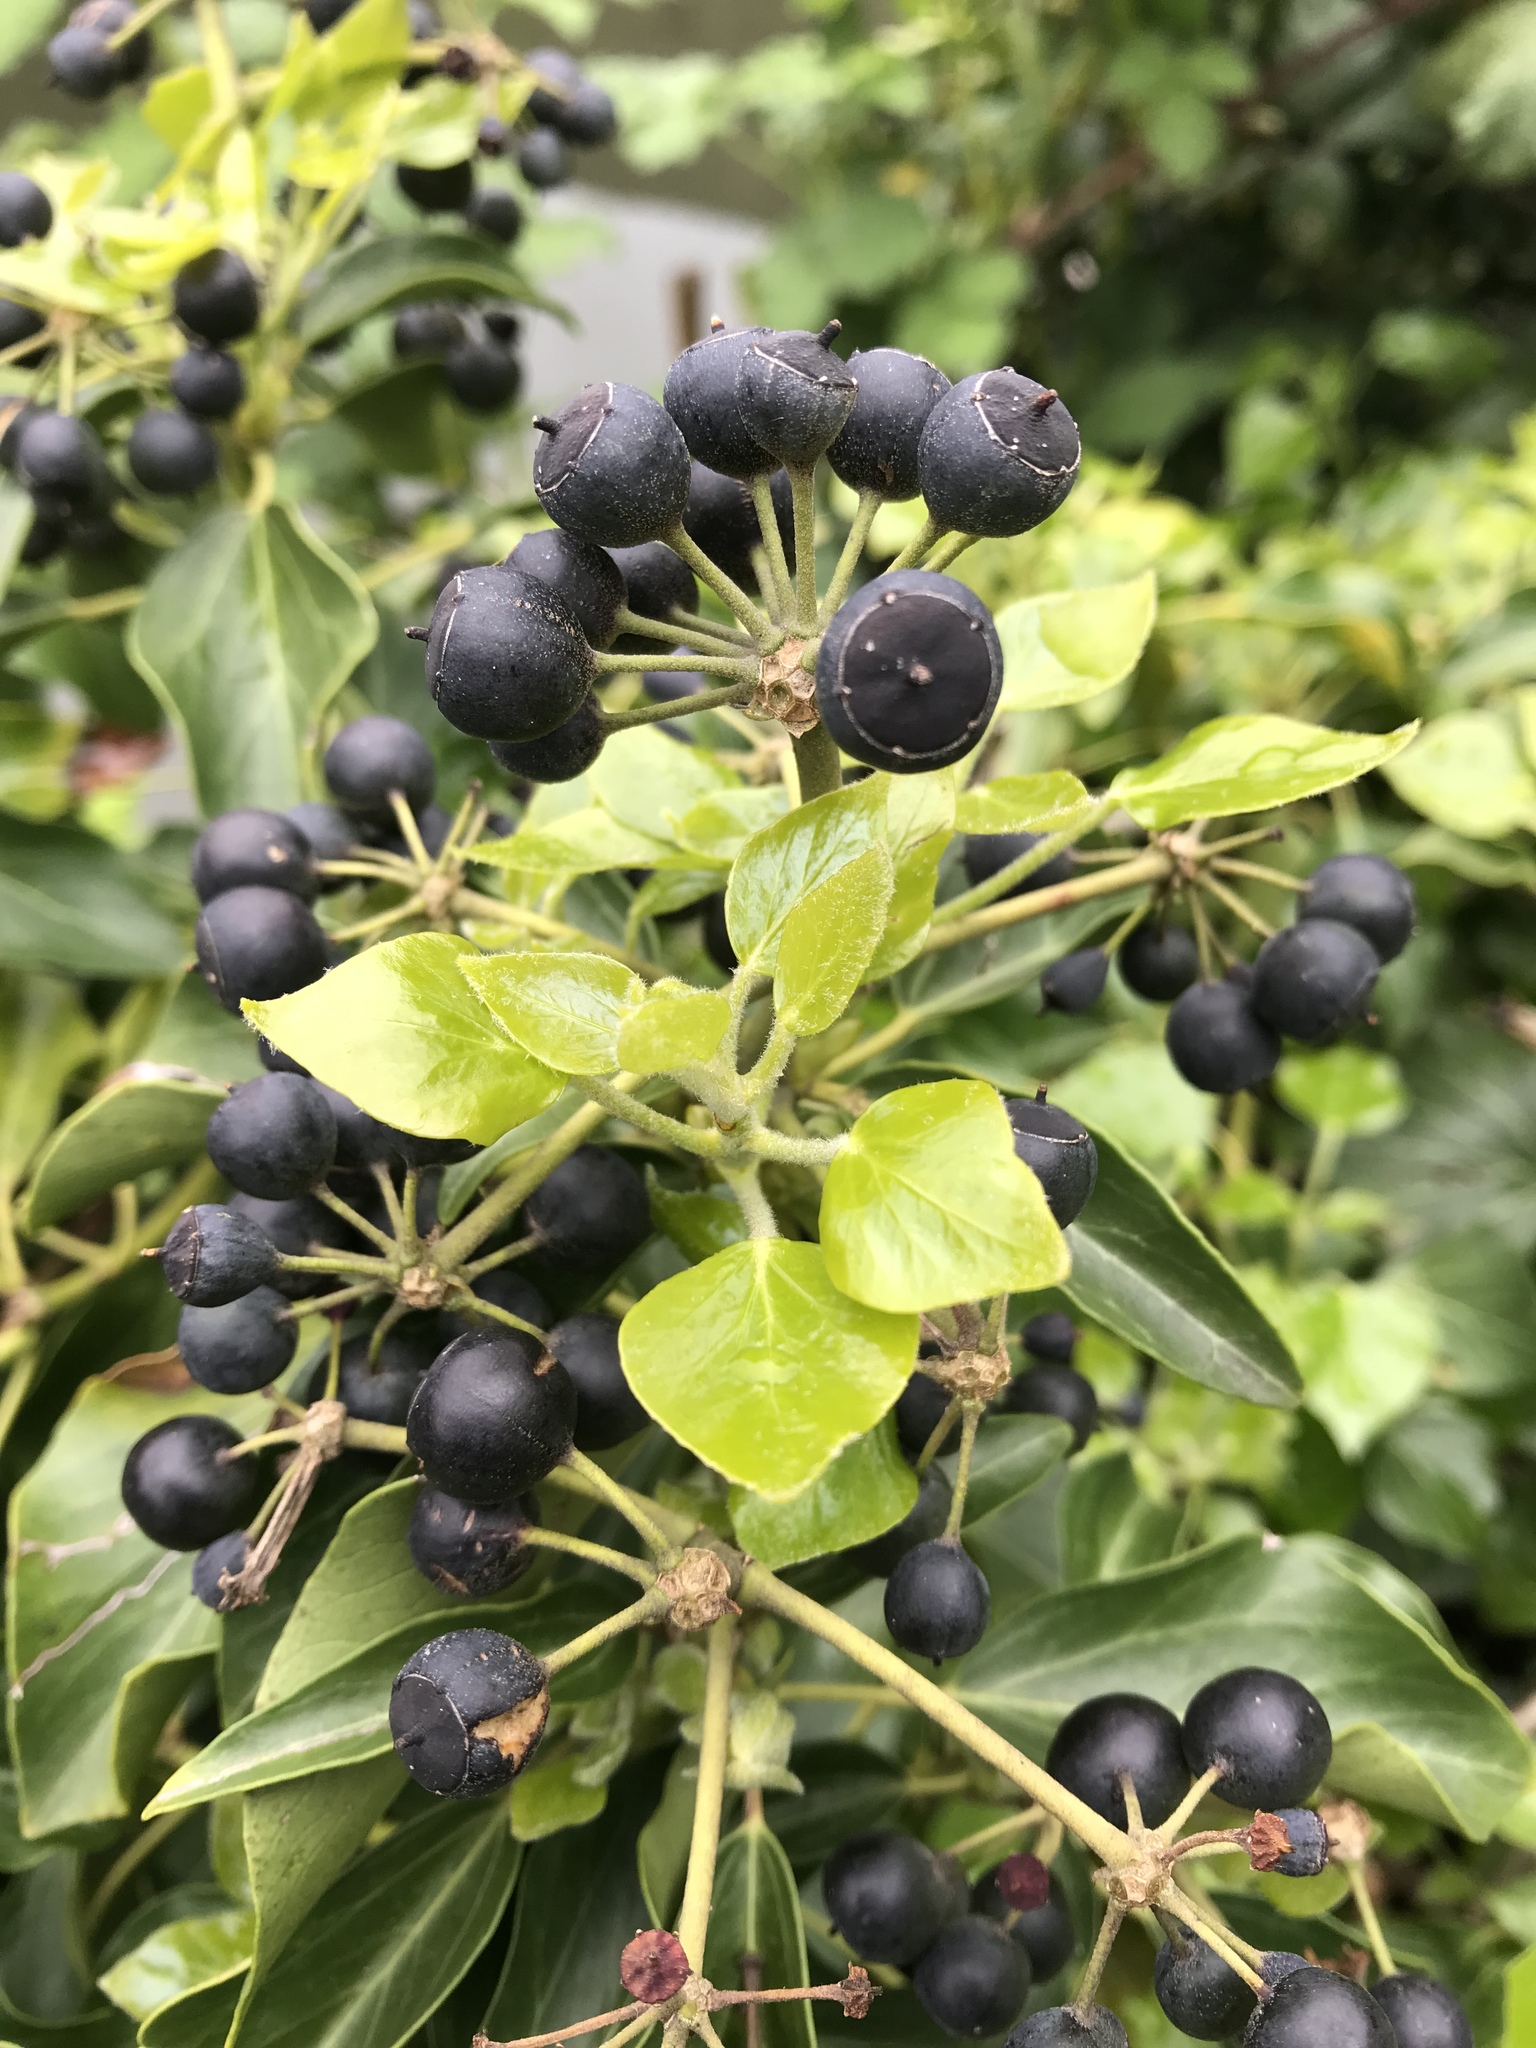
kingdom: Plantae
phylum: Tracheophyta
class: Magnoliopsida
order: Apiales
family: Araliaceae
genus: Hedera
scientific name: Hedera helix
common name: Ivy
